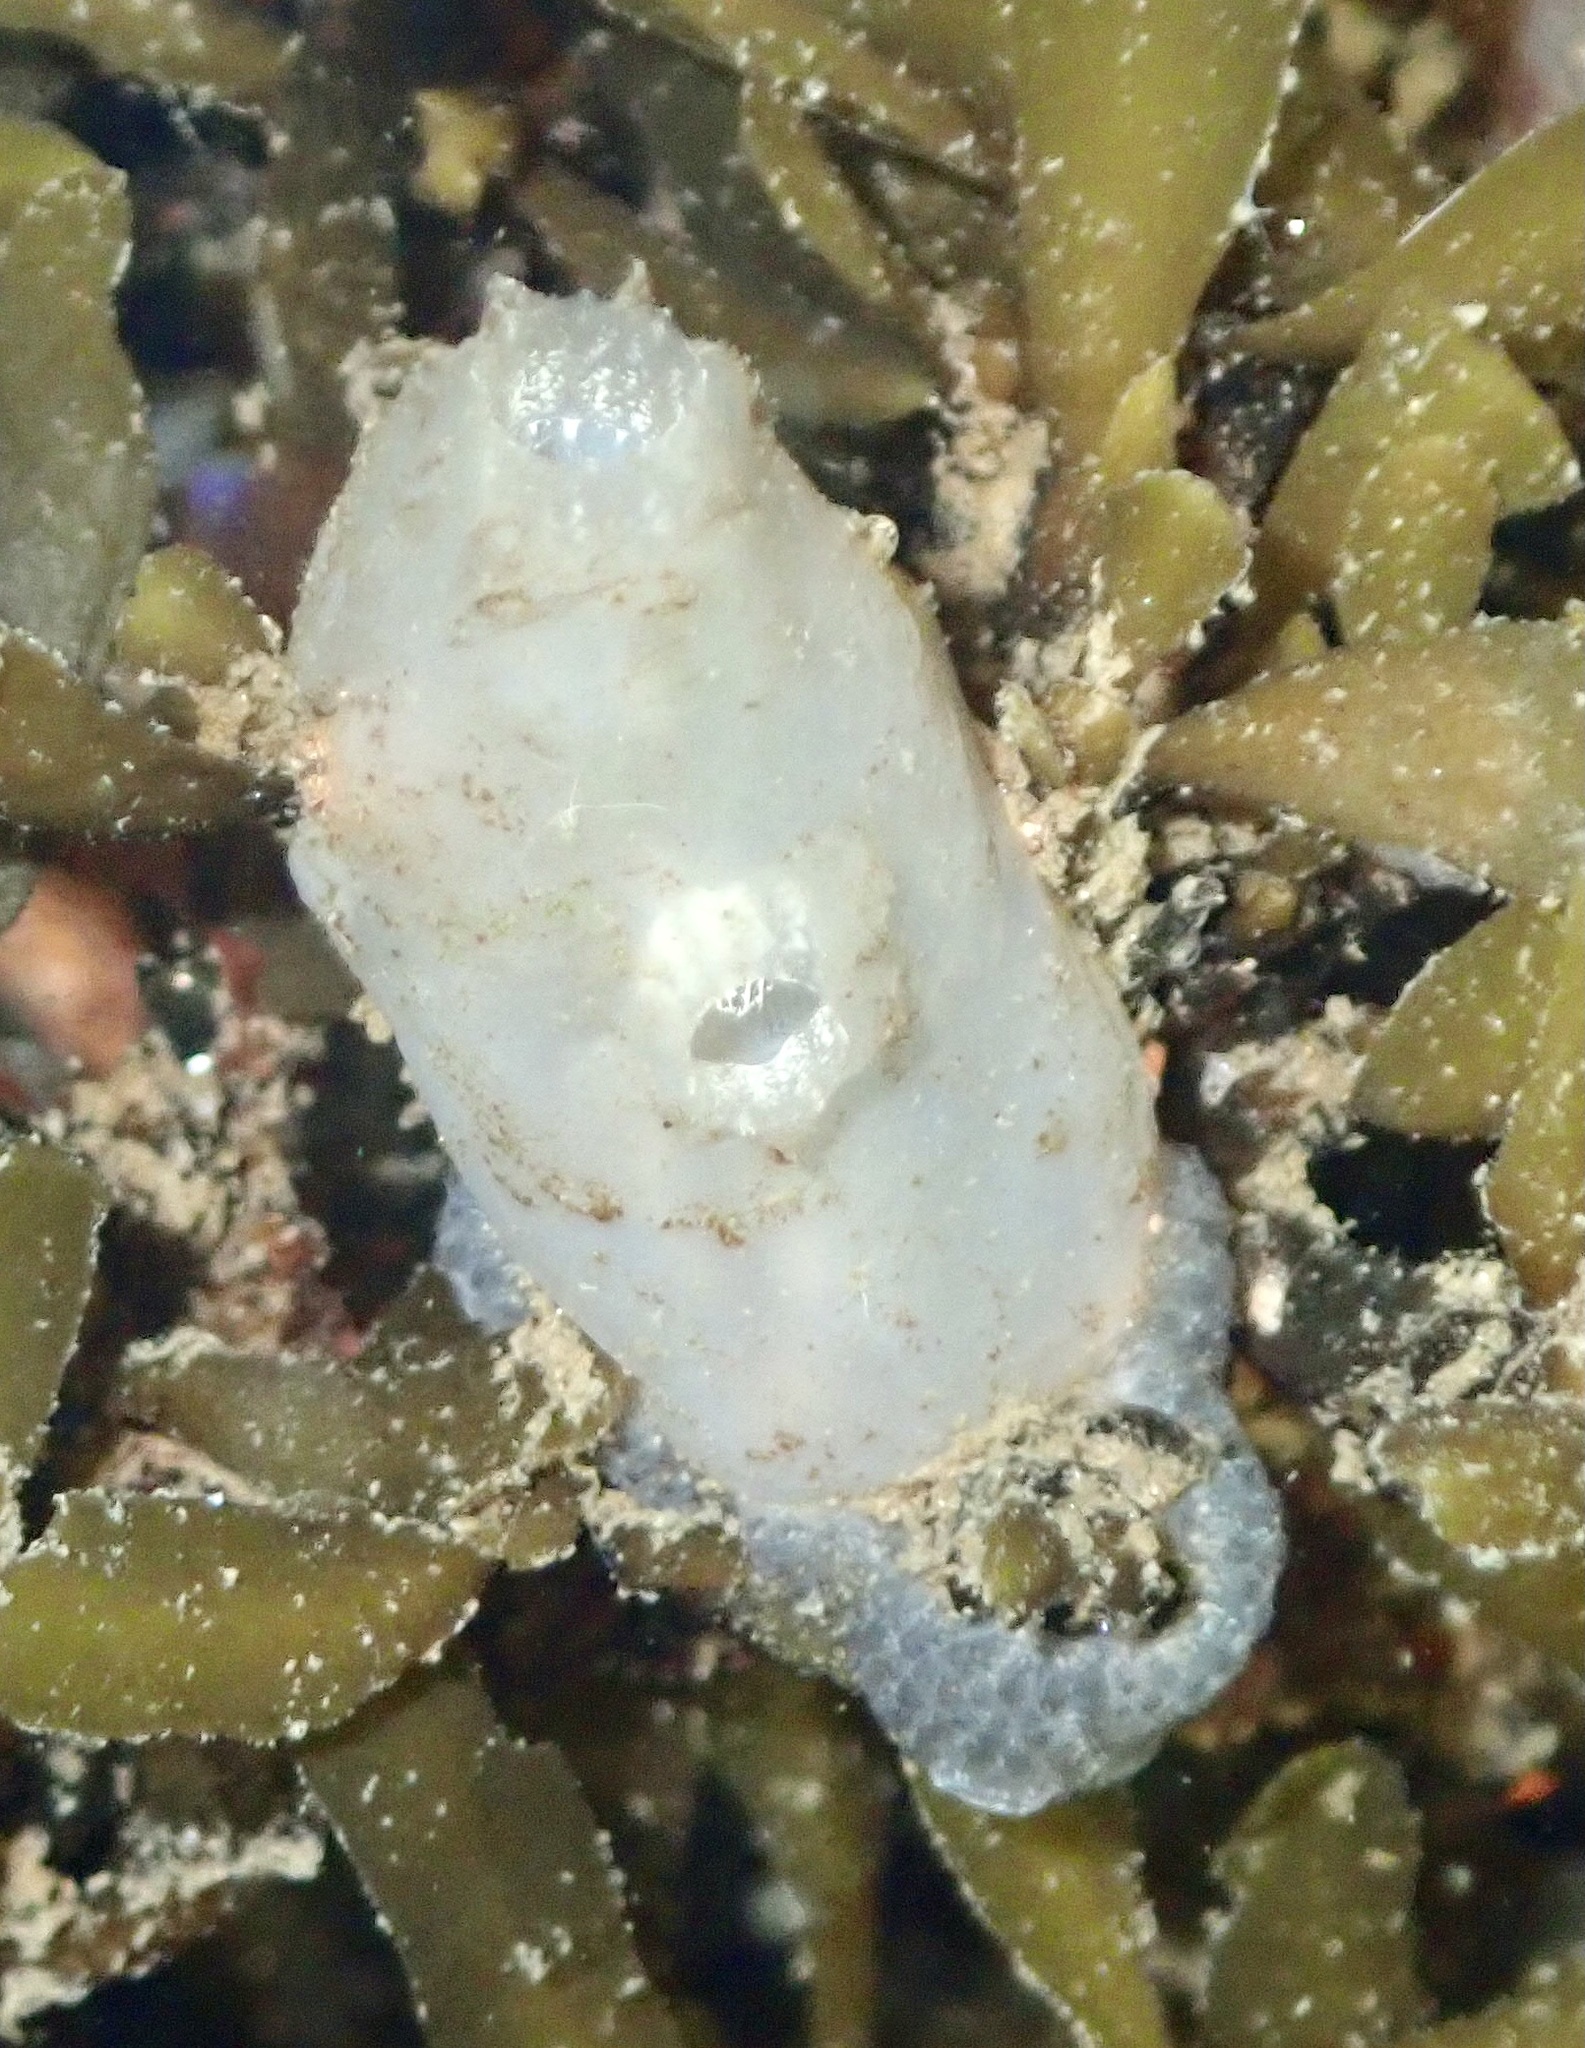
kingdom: Animalia
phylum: Chordata
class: Ascidiacea
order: Phlebobranchia
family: Ascidiidae
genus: Ascidiella
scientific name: Ascidiella aspersa
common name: Dirty sea-squirt
